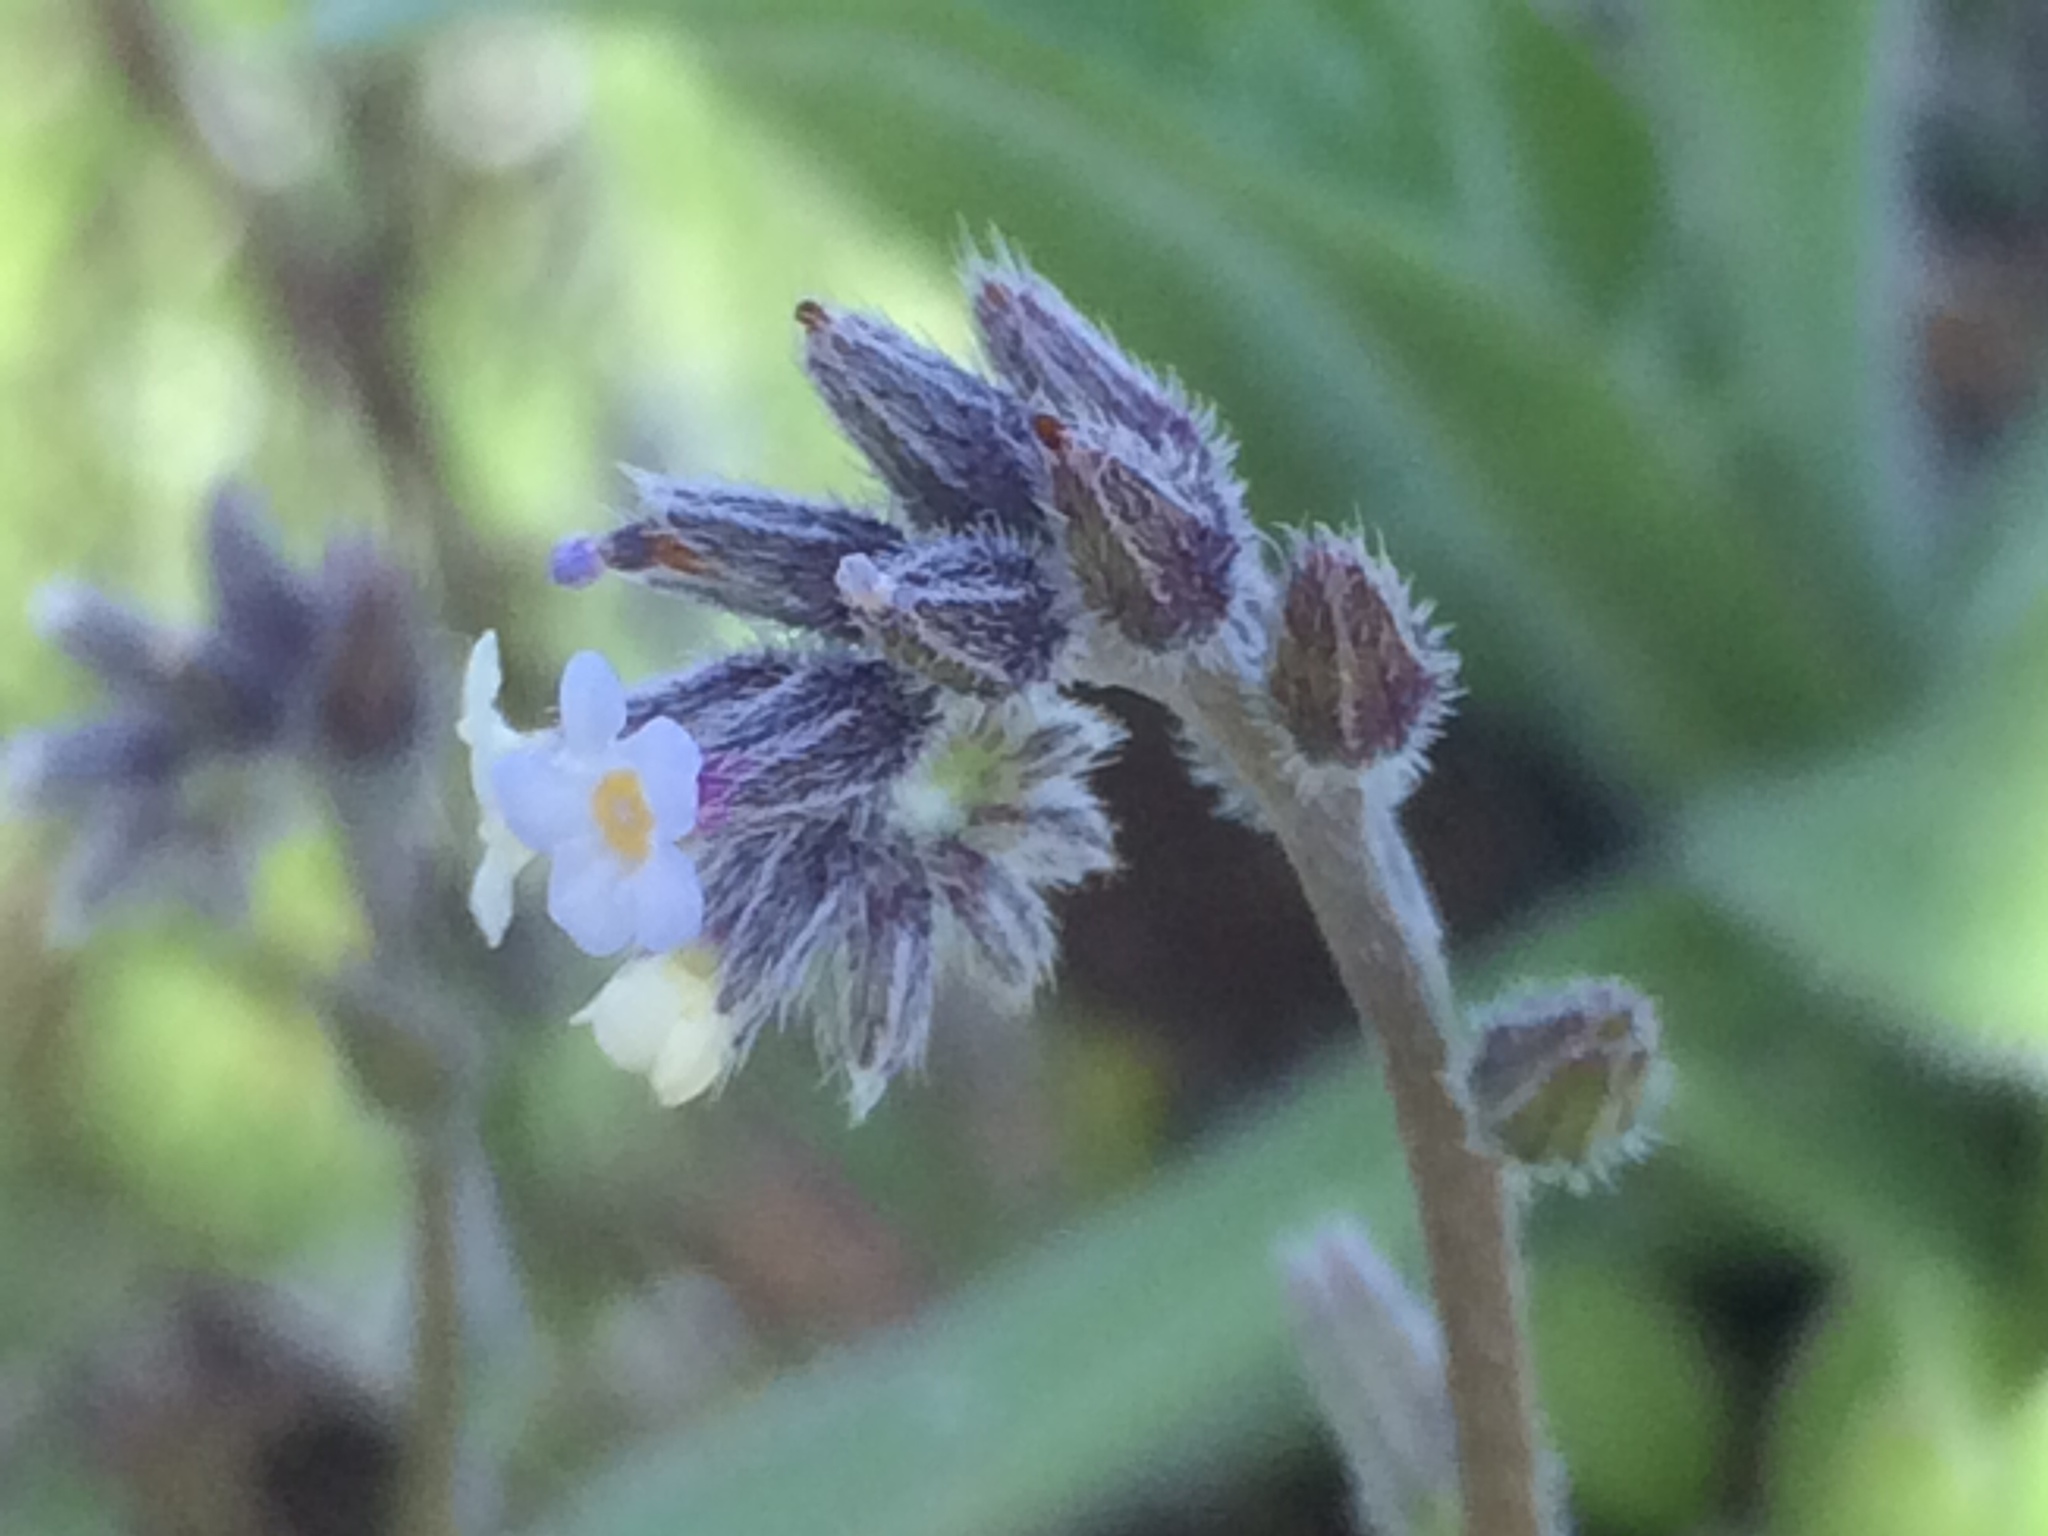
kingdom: Plantae
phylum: Tracheophyta
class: Magnoliopsida
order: Boraginales
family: Boraginaceae
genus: Myosotis
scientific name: Myosotis discolor
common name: Changing forget-me-not
